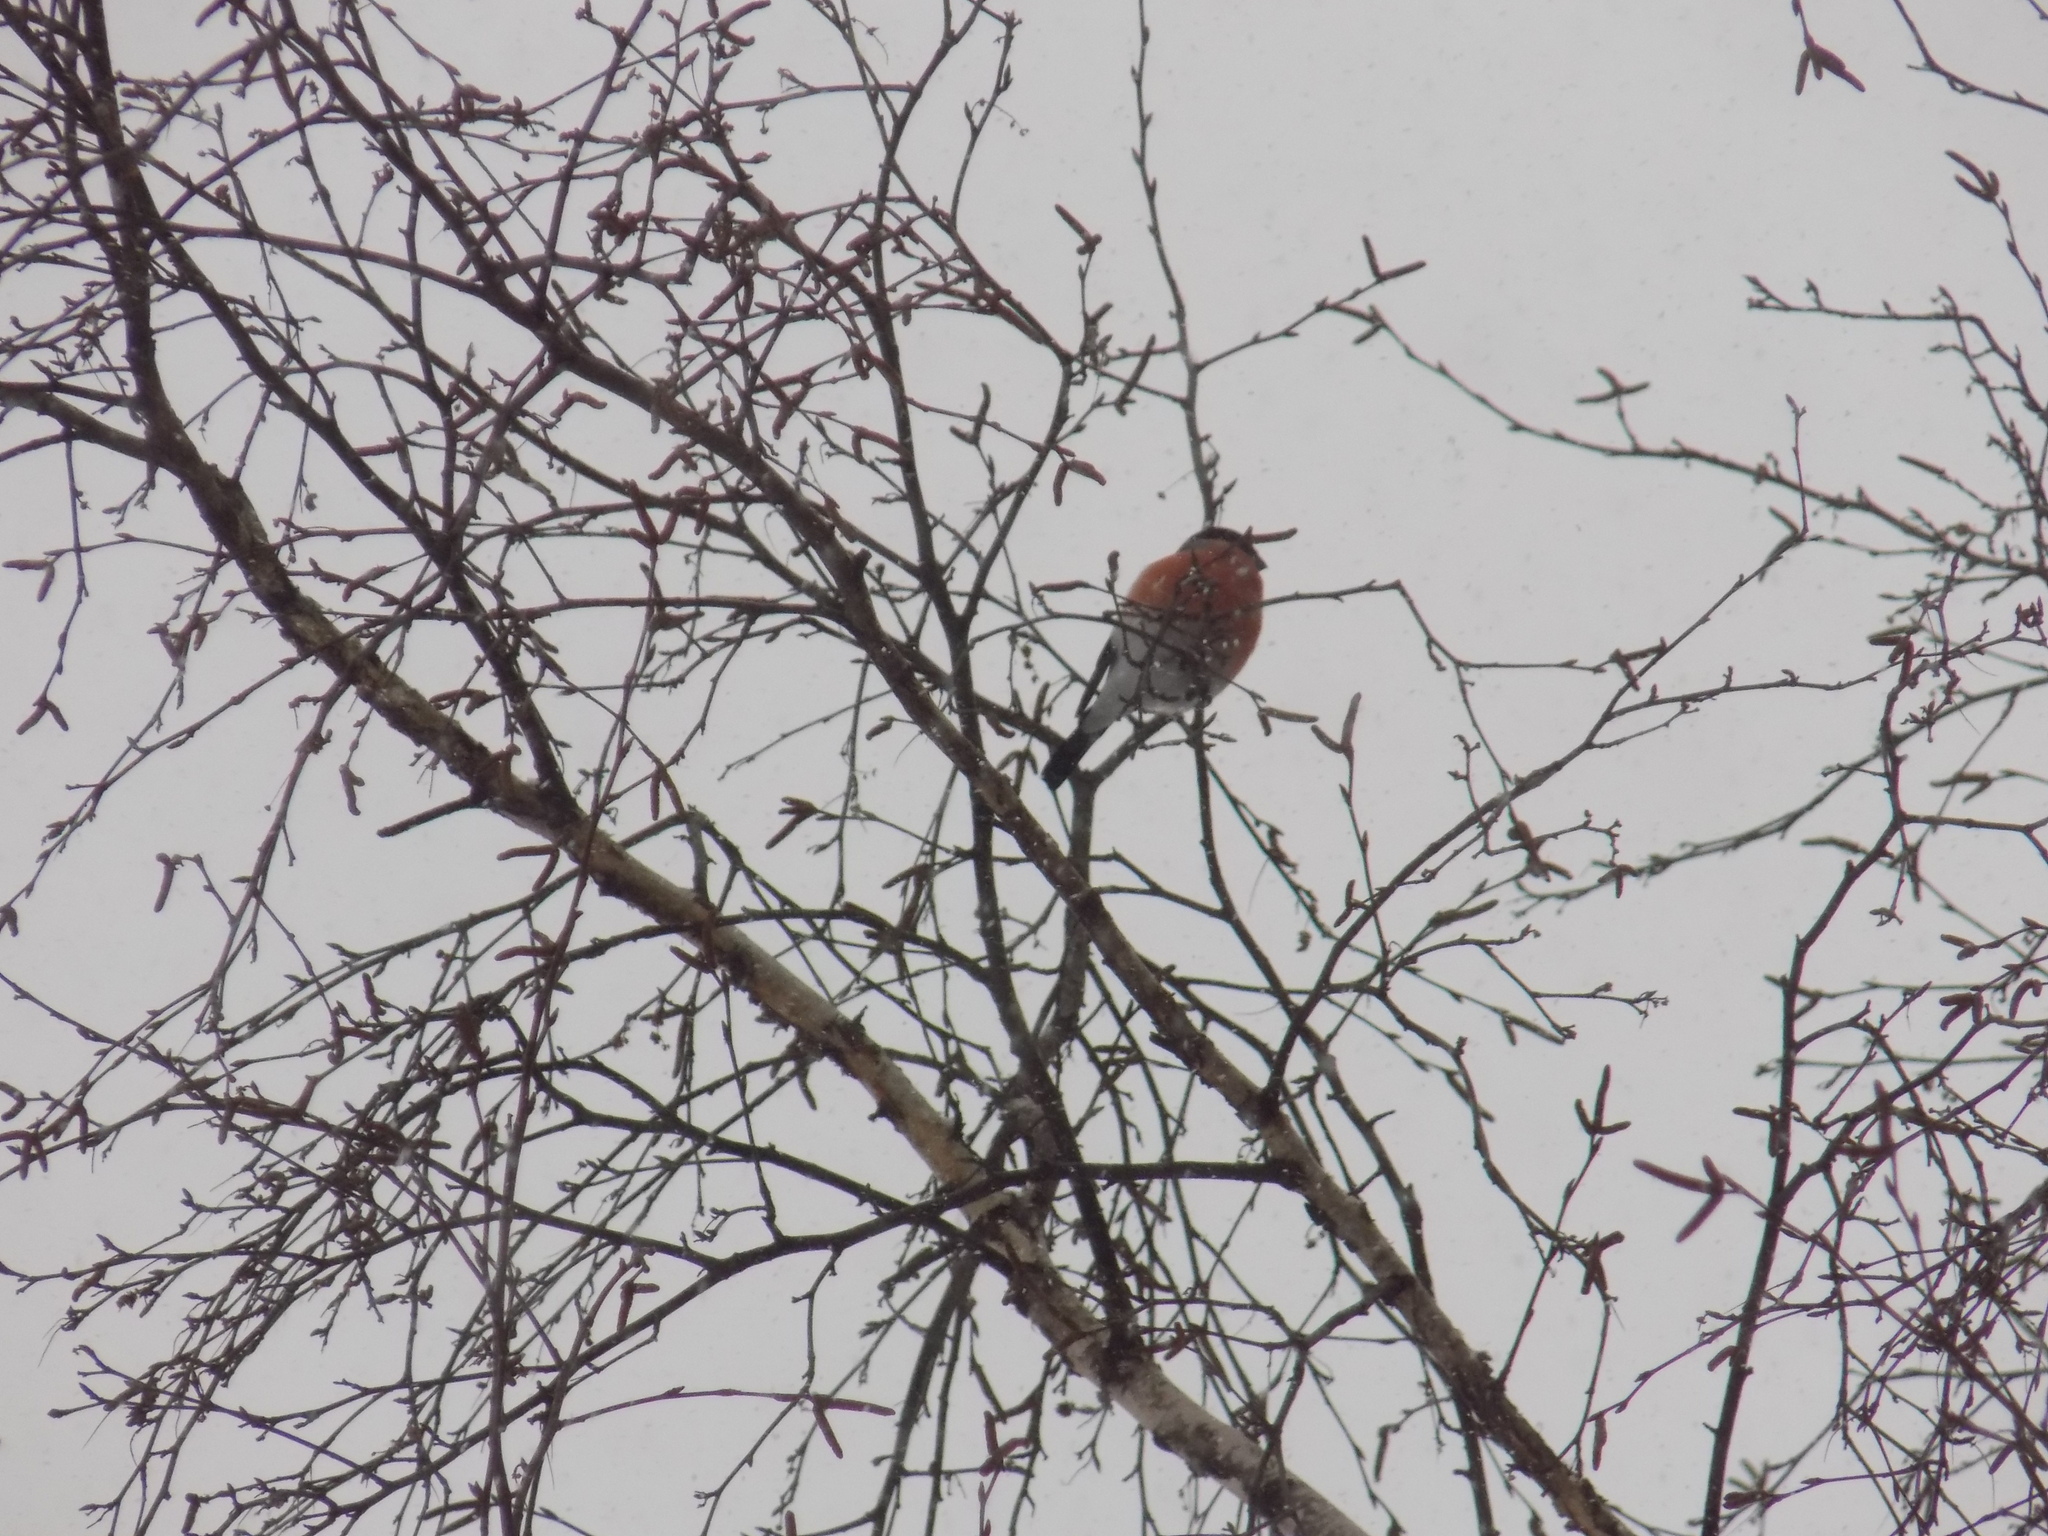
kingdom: Animalia
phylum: Chordata
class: Aves
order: Passeriformes
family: Fringillidae
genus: Pyrrhula
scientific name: Pyrrhula pyrrhula
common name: Eurasian bullfinch
